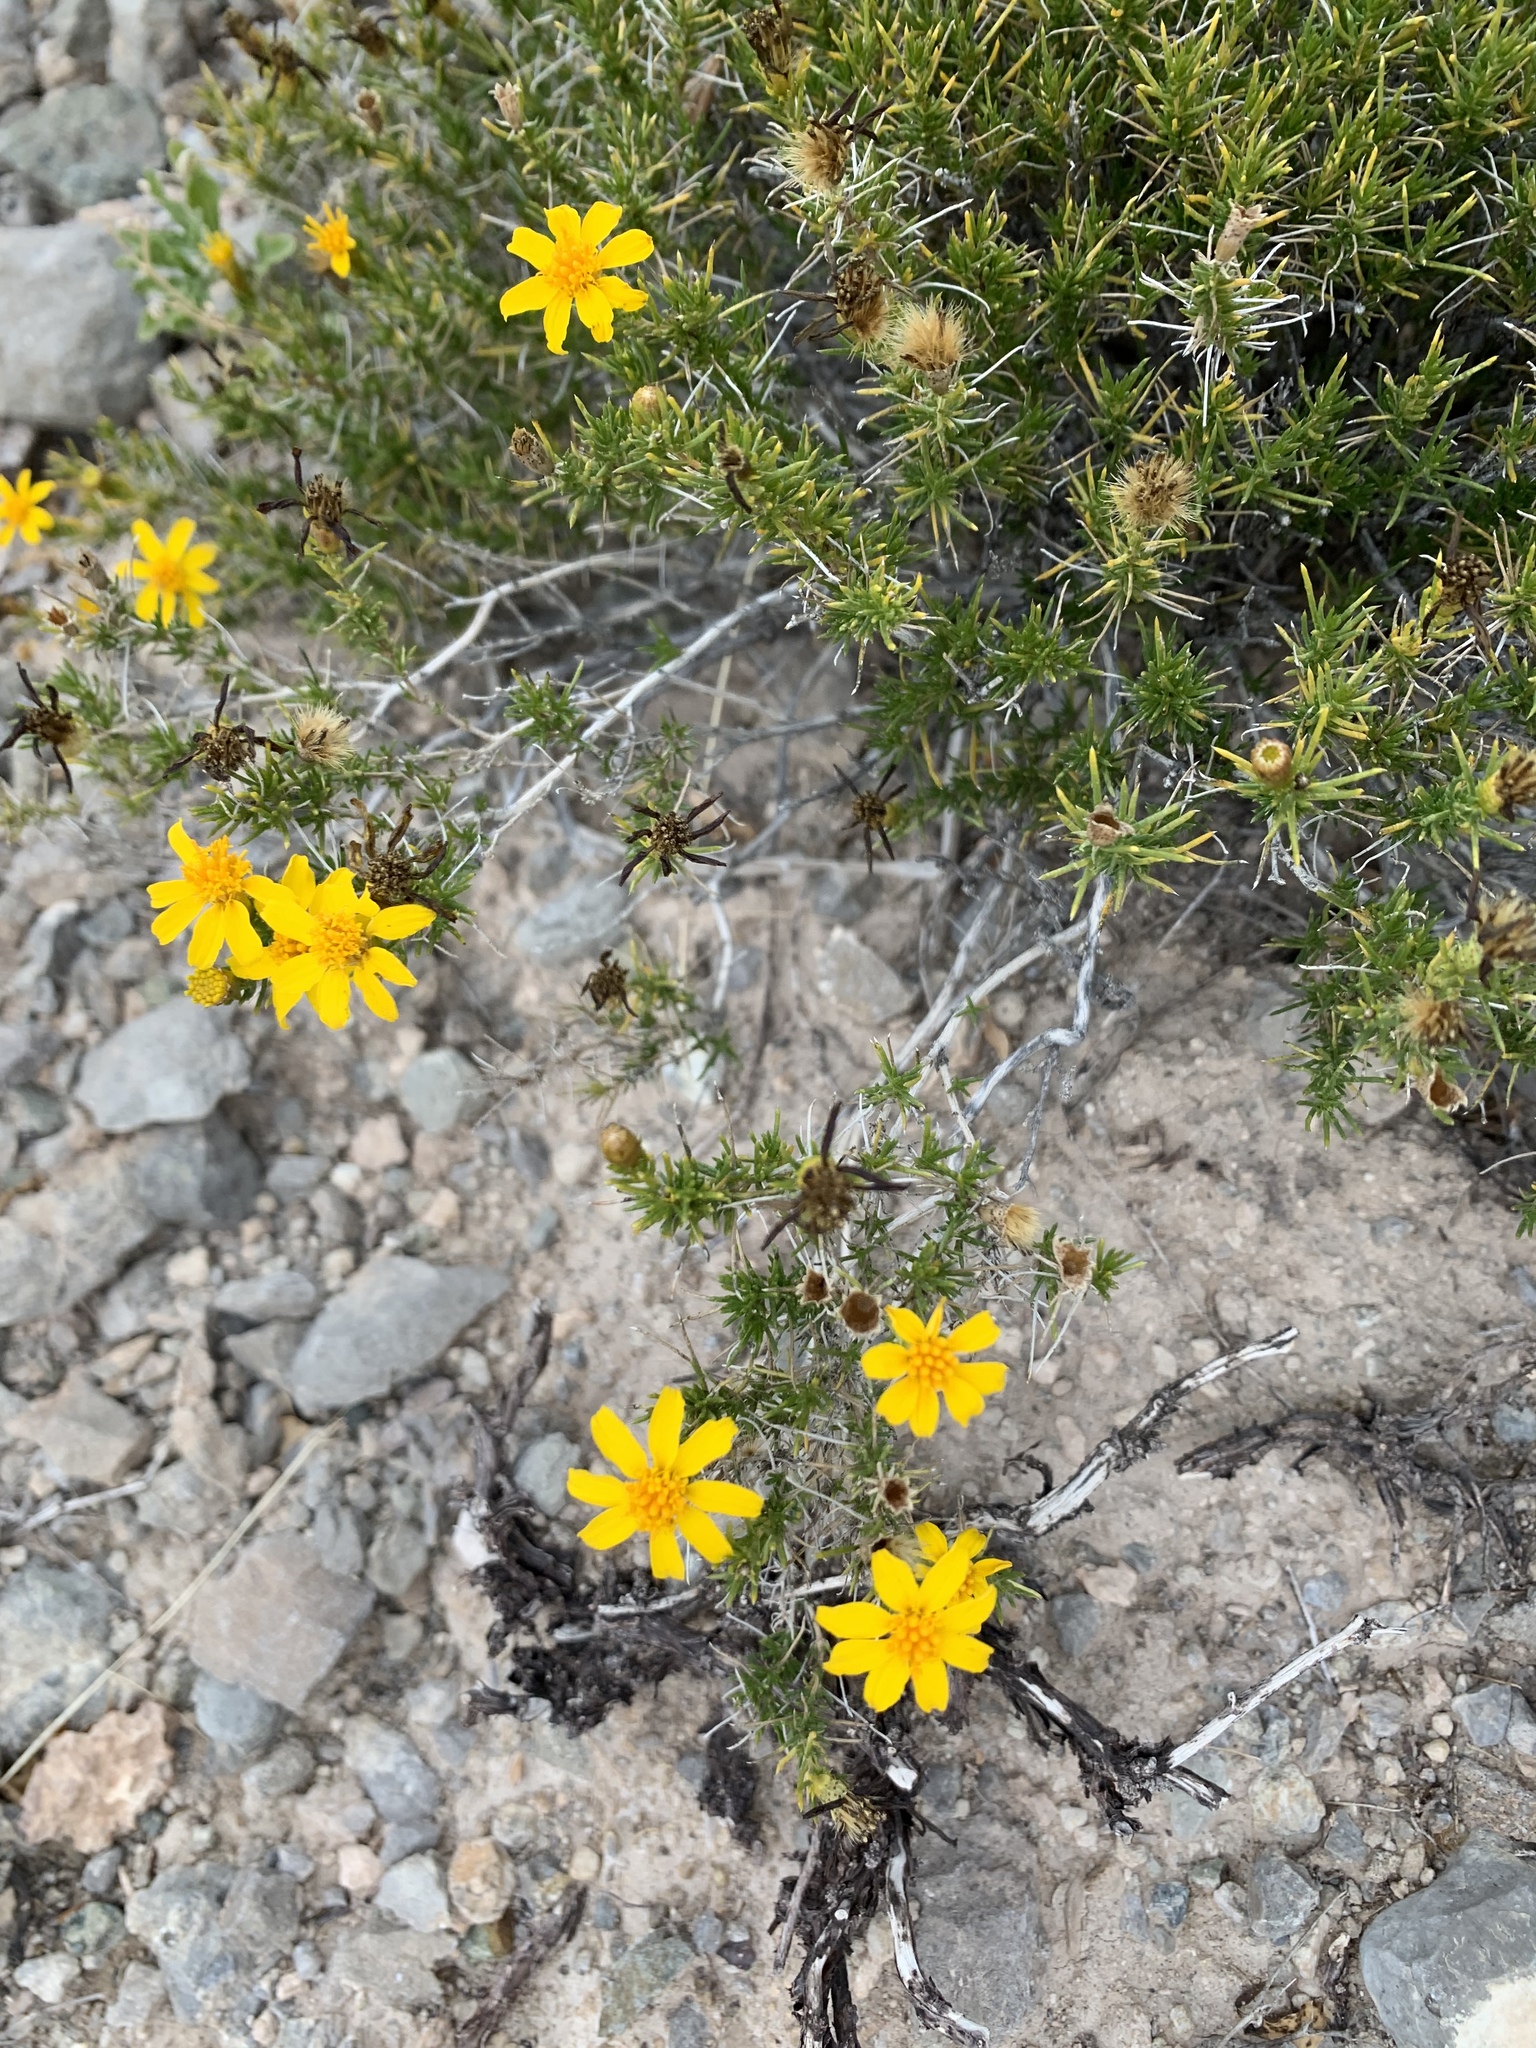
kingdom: Plantae
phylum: Tracheophyta
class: Magnoliopsida
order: Asterales
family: Asteraceae
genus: Thymophylla
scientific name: Thymophylla acerosa
